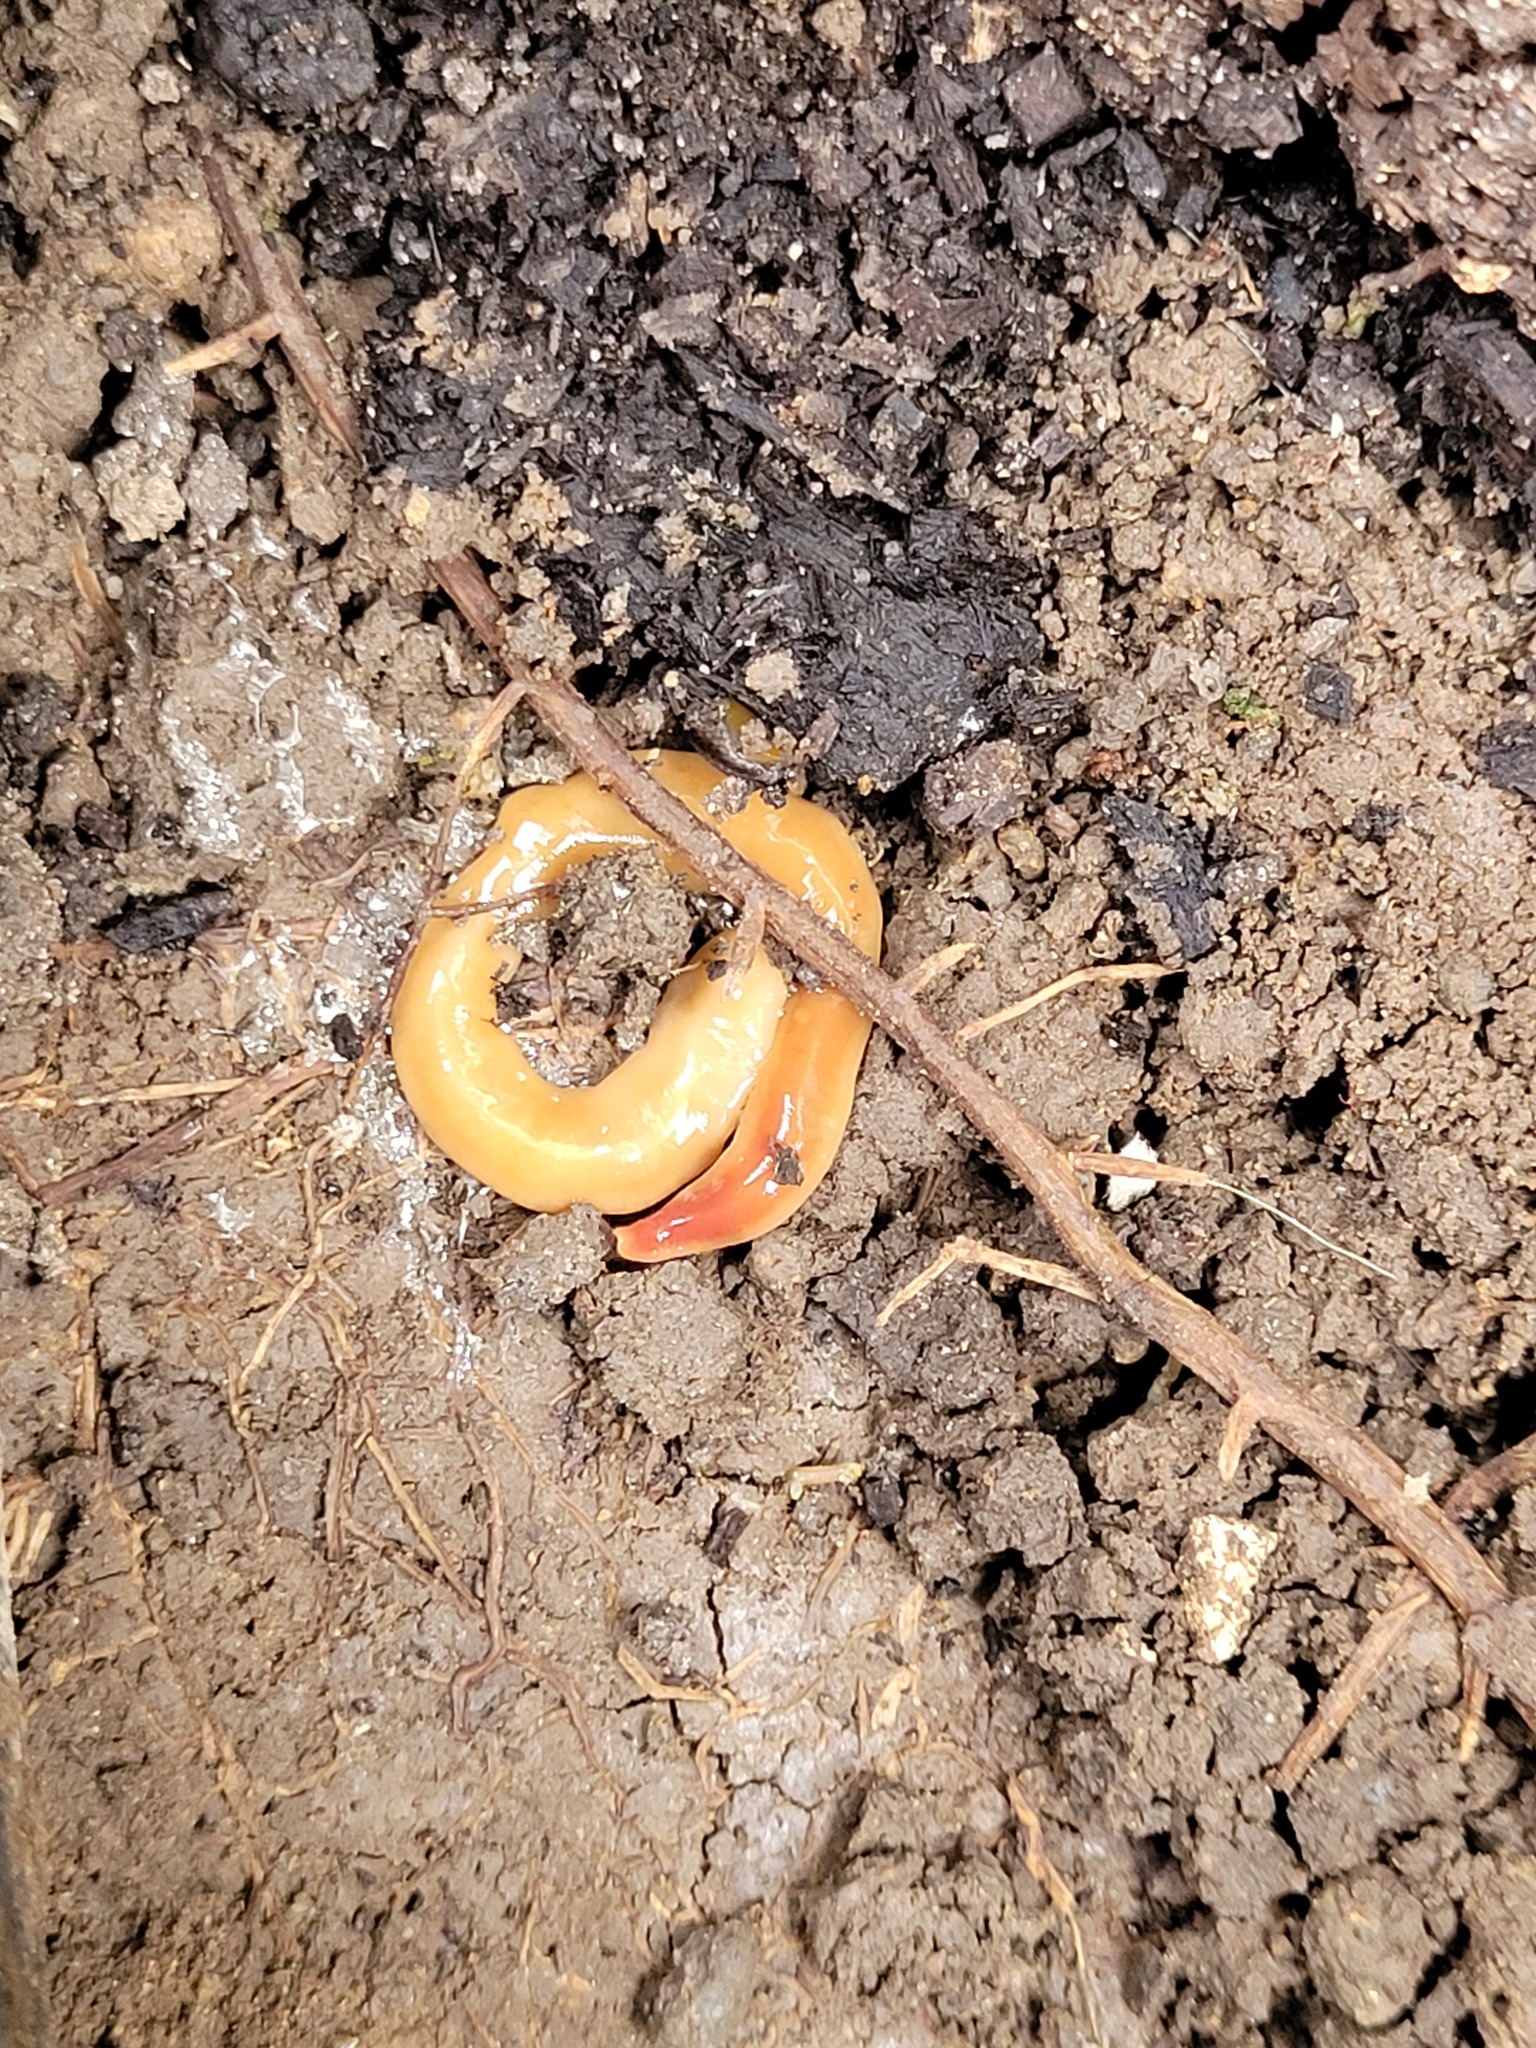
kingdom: Animalia
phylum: Platyhelminthes
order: Tricladida
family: Geoplanidae
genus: Australoplana
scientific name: Australoplana sanguinea
